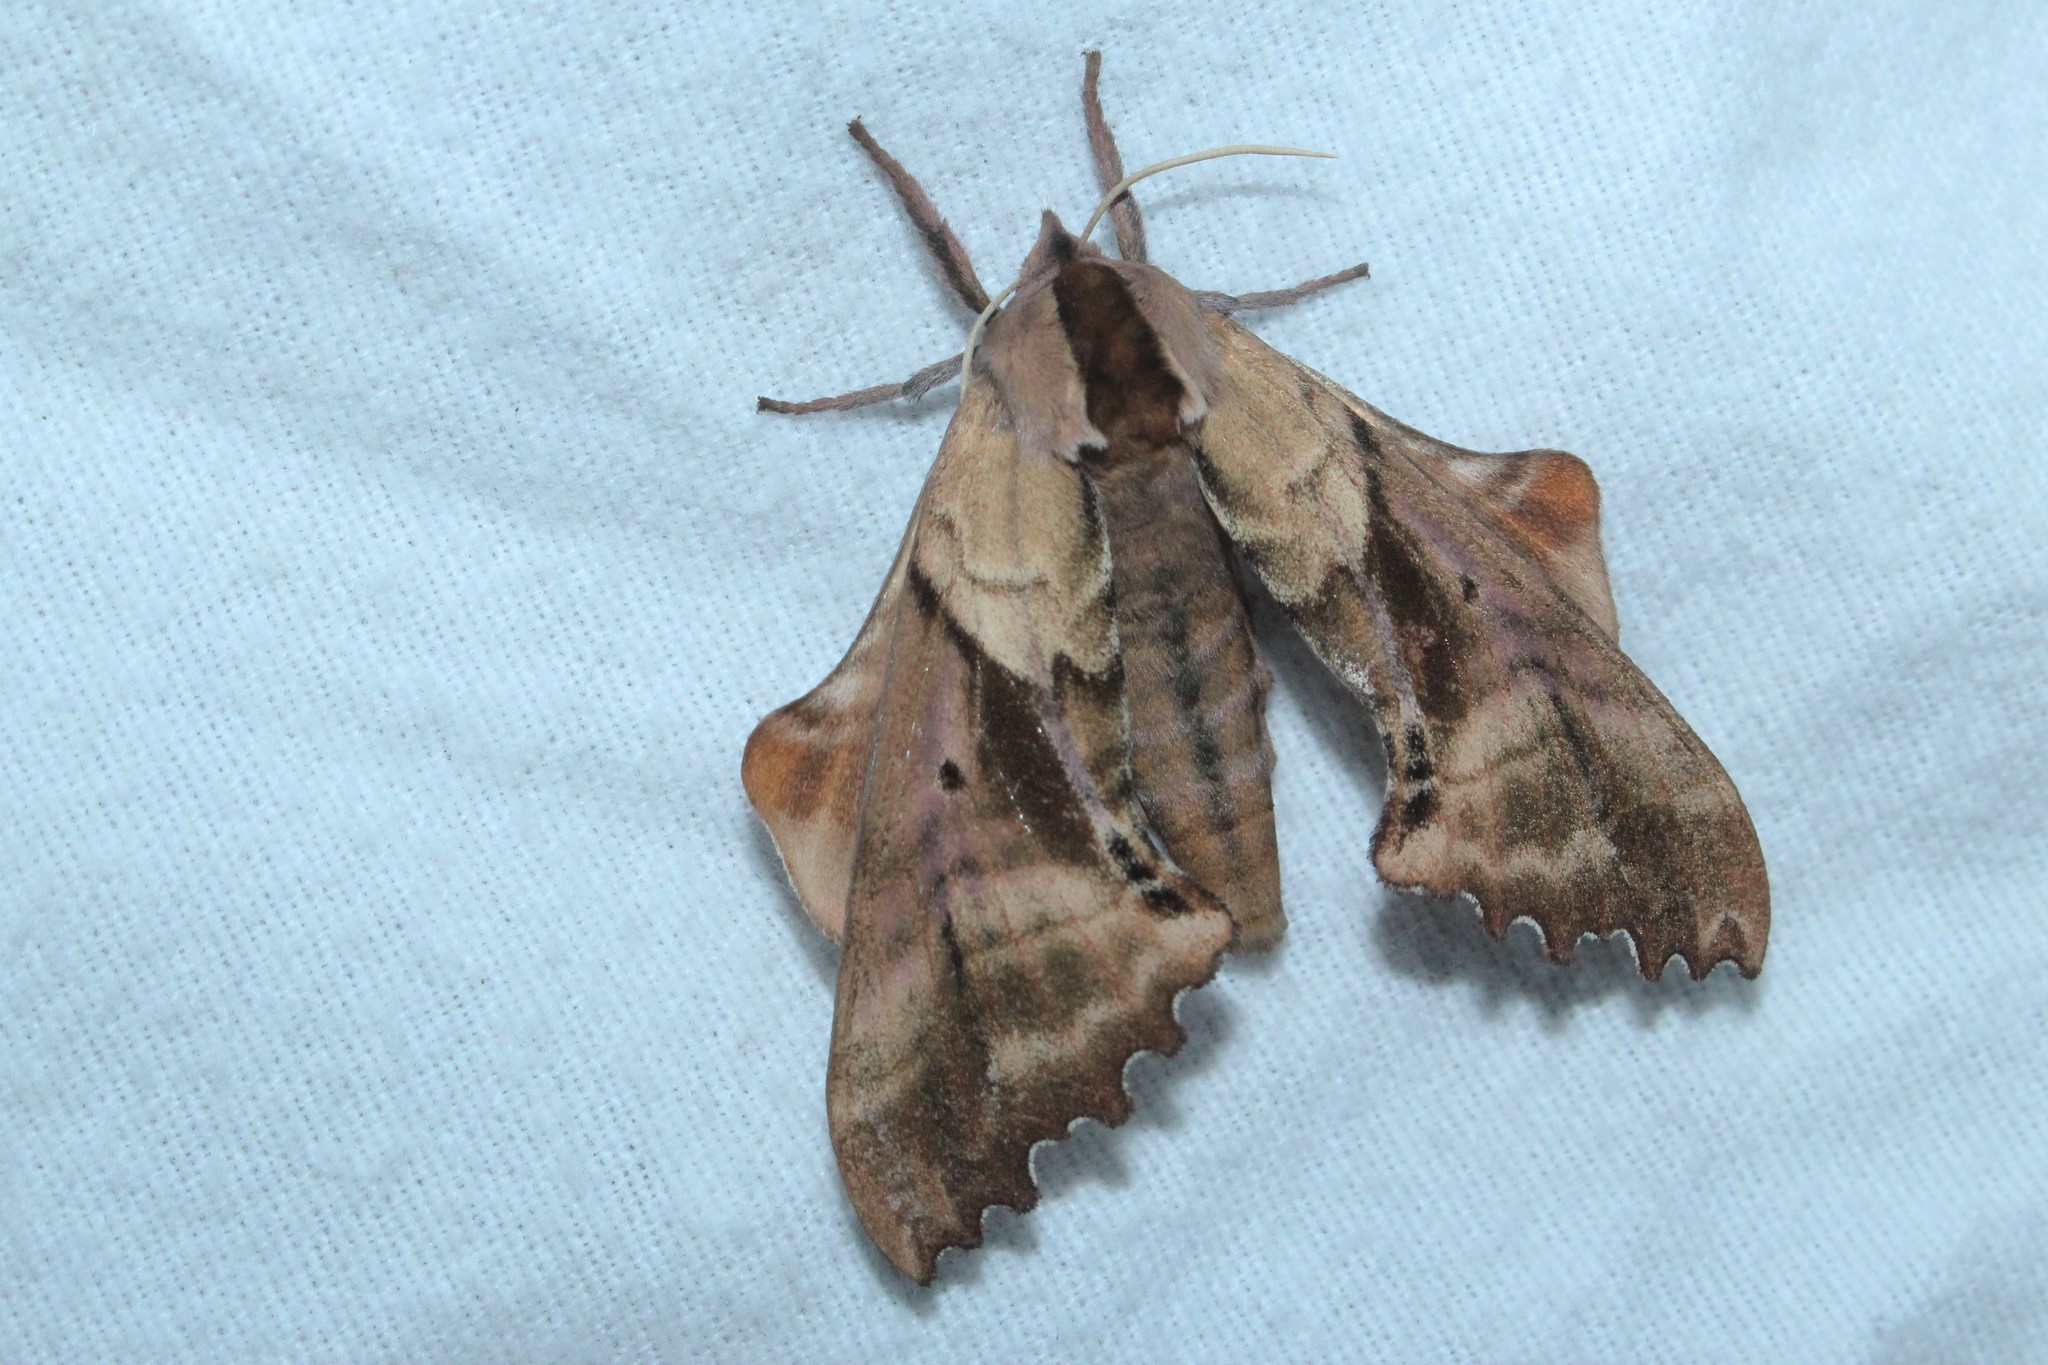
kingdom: Animalia
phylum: Arthropoda
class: Insecta
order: Lepidoptera
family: Sphingidae
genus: Paonias
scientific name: Paonias excaecata
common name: Blind-eyed sphinx
